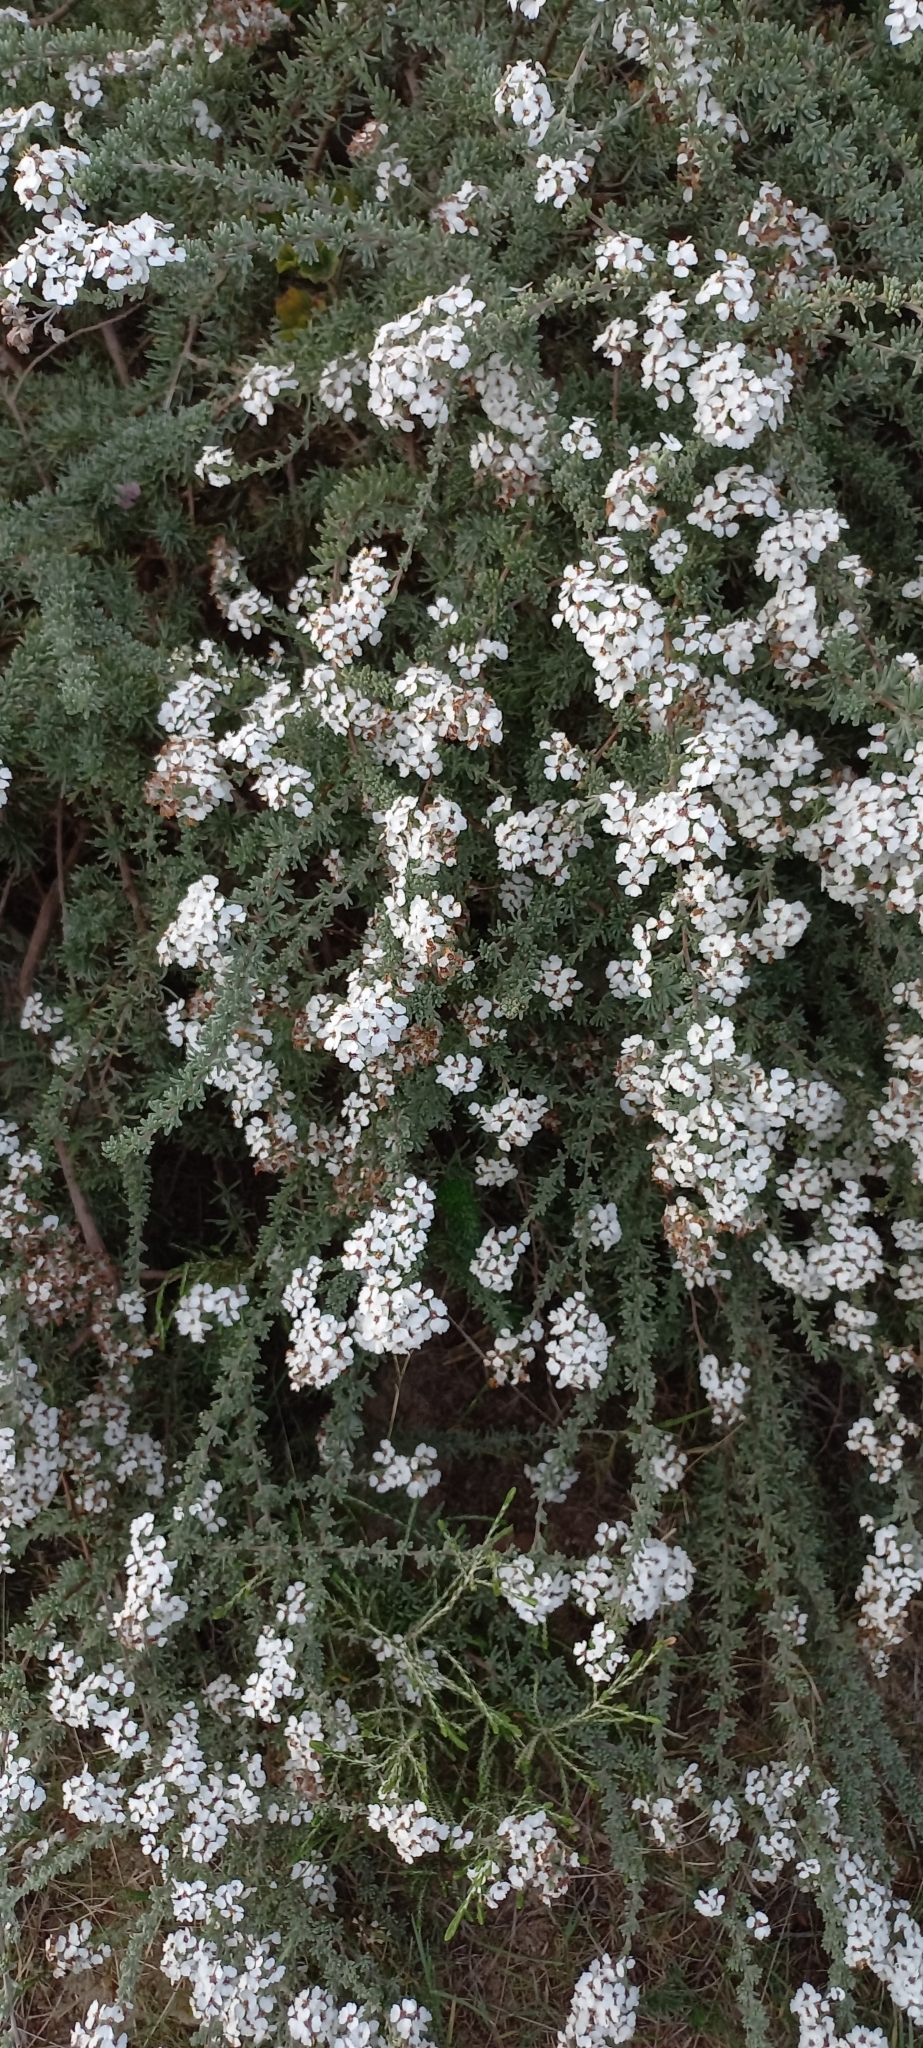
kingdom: Plantae
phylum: Tracheophyta
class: Magnoliopsida
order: Asterales
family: Asteraceae
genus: Eriocephalus
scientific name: Eriocephalus africanus
